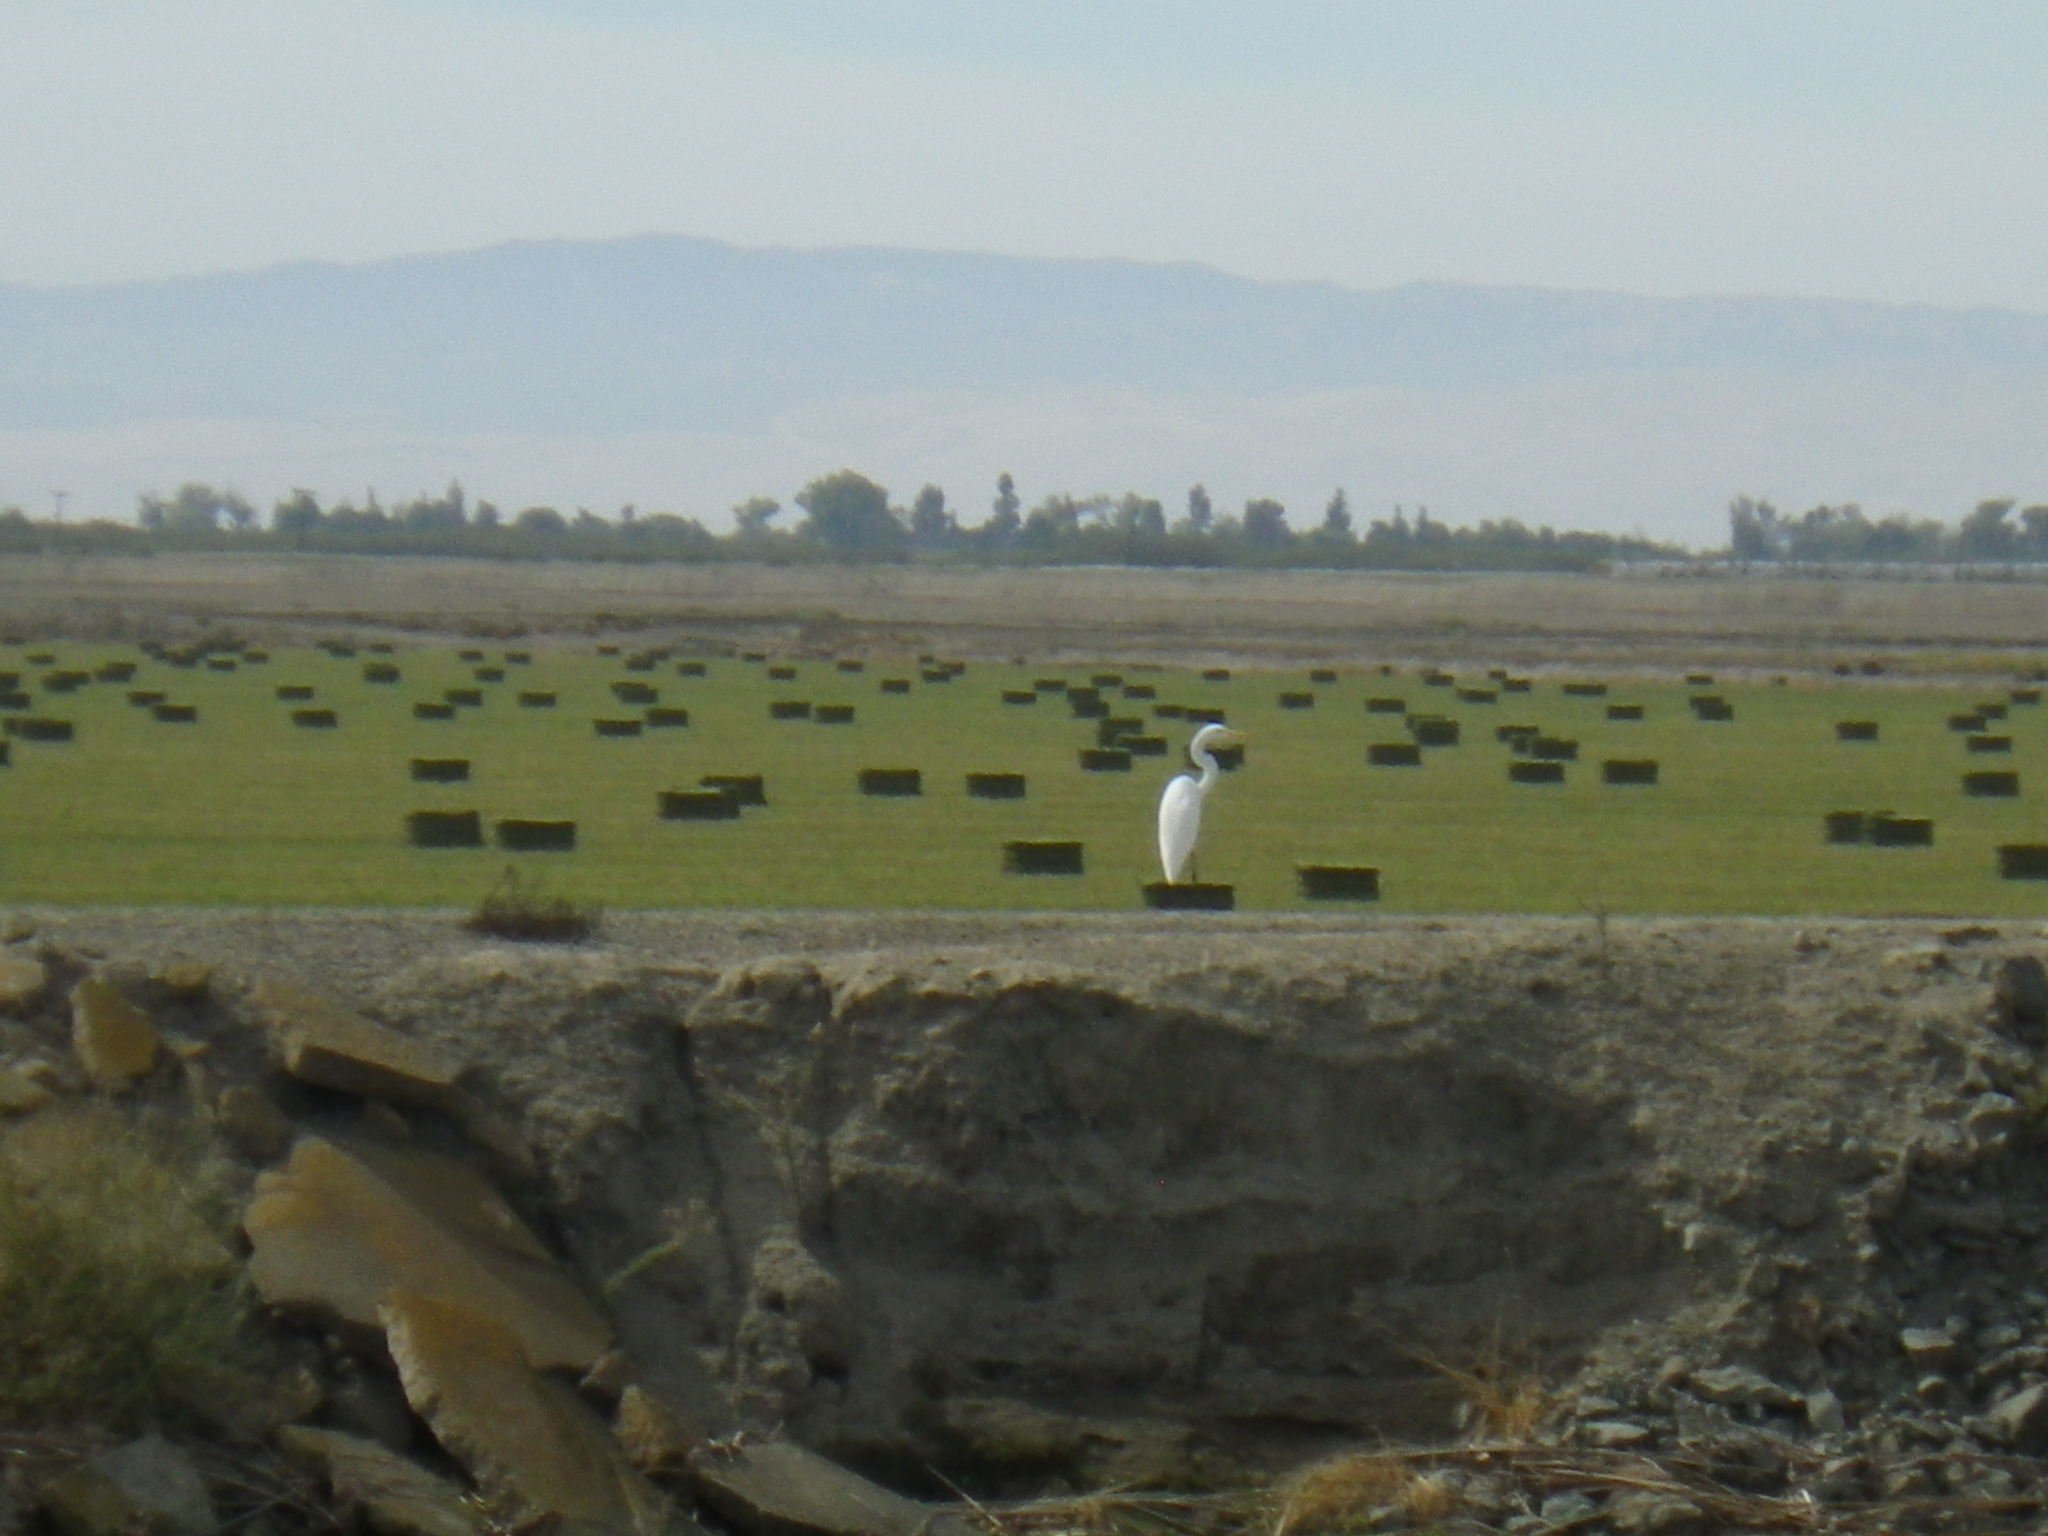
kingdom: Animalia
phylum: Chordata
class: Aves
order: Pelecaniformes
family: Ardeidae
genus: Ardea
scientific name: Ardea alba
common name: Great egret
